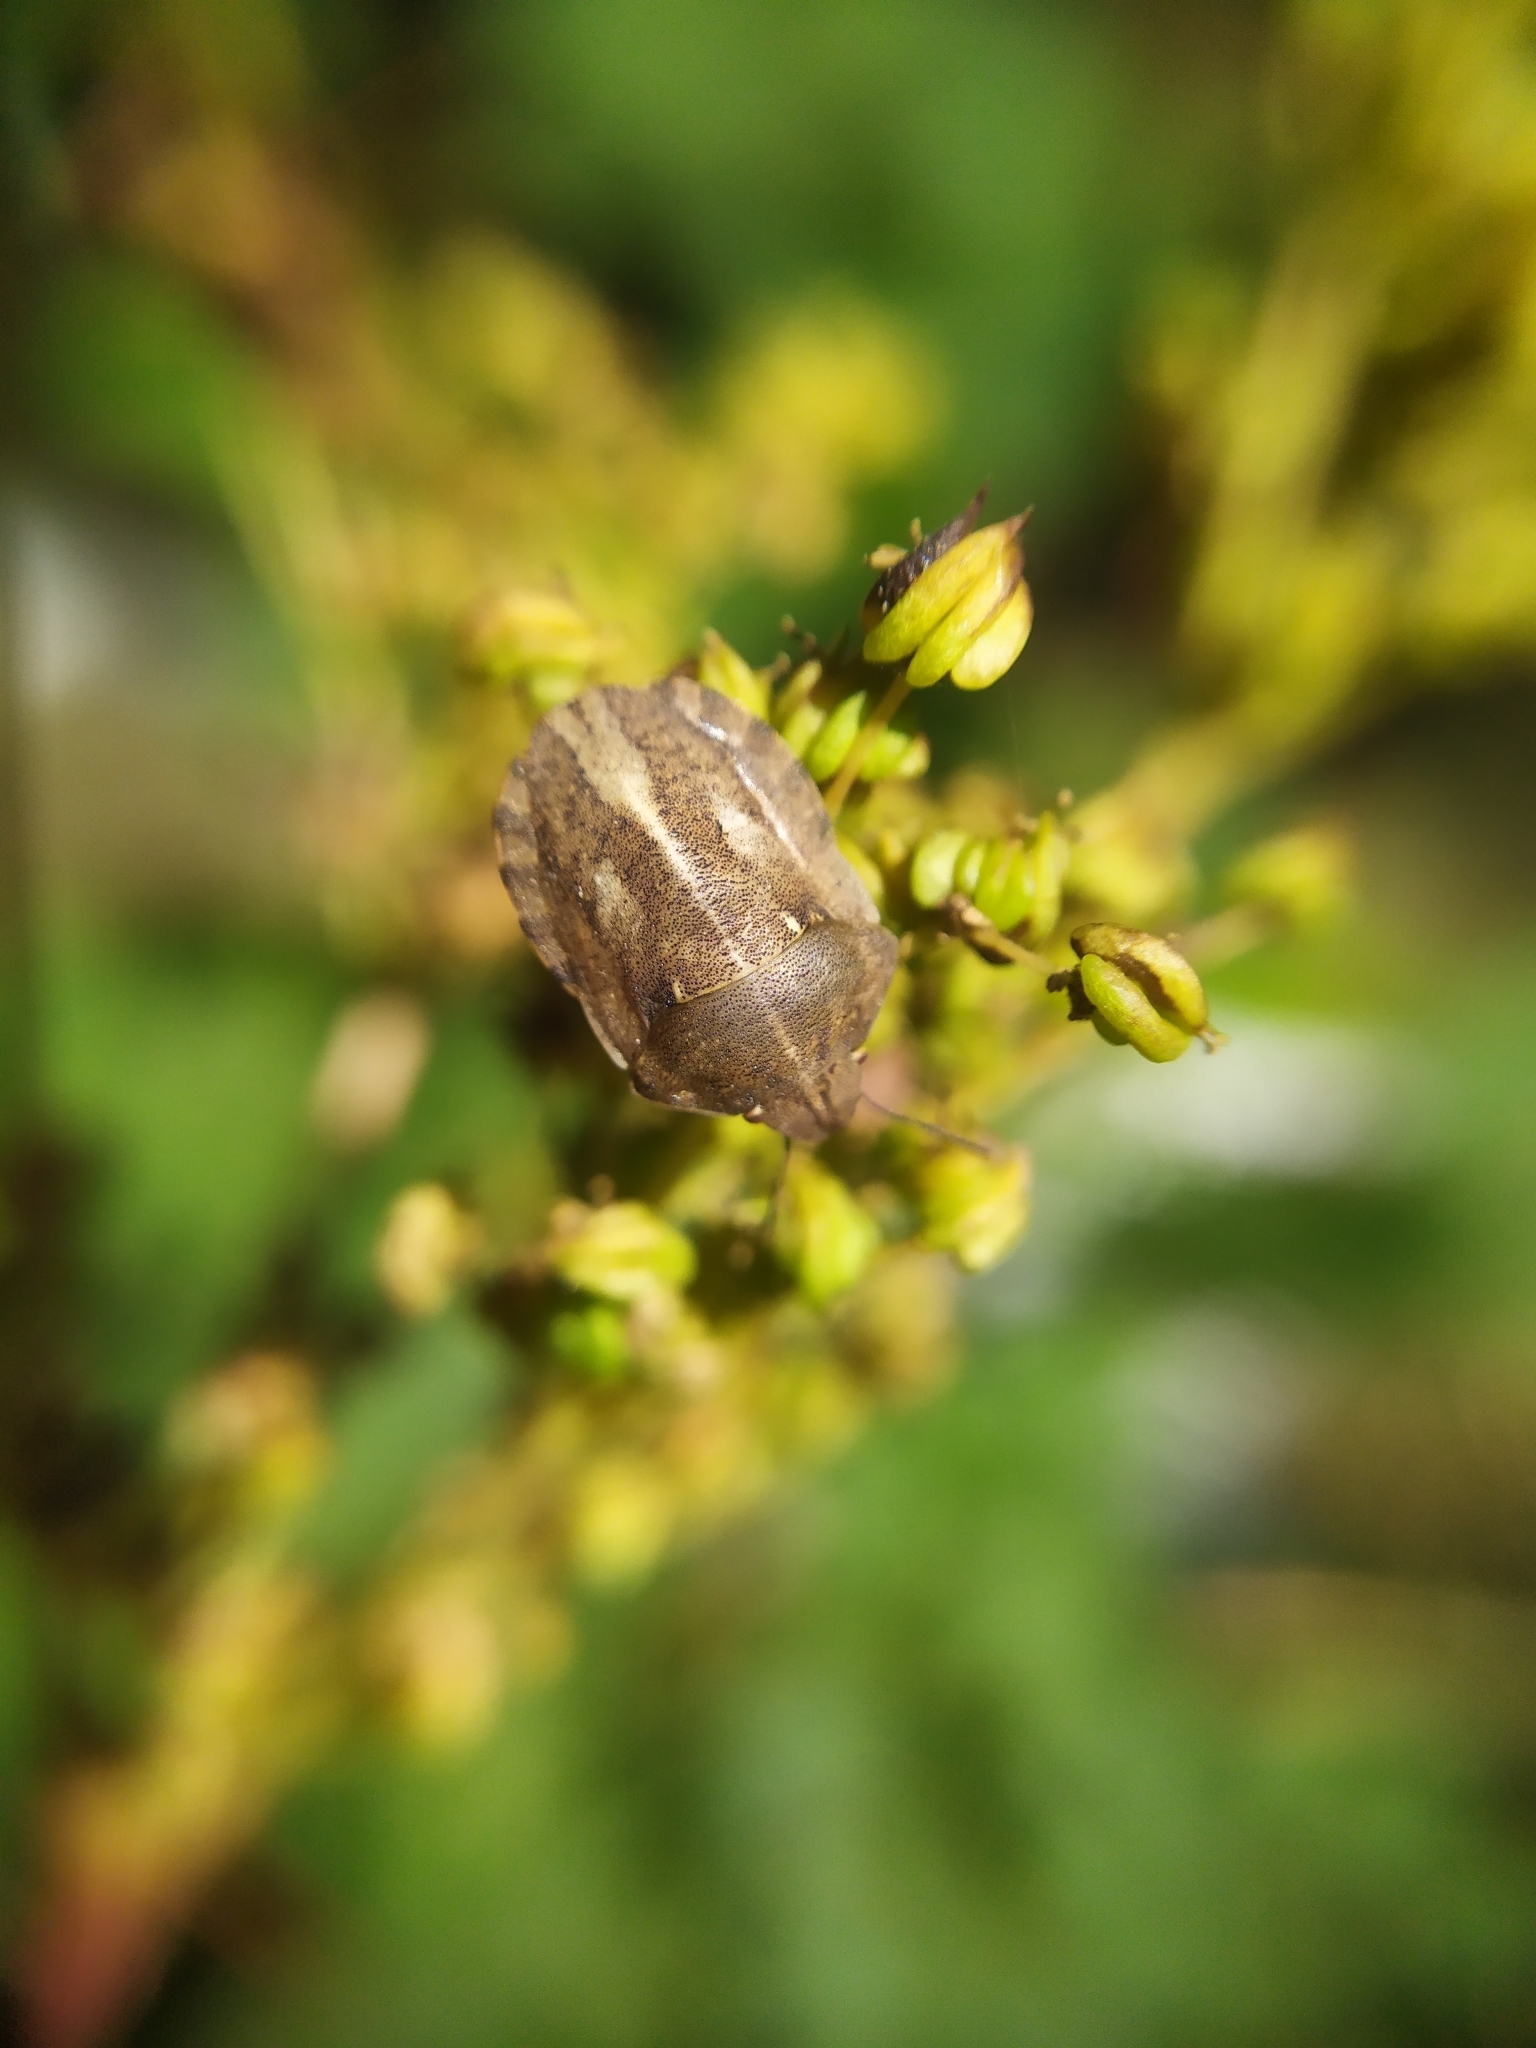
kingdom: Animalia
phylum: Arthropoda
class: Insecta
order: Hemiptera
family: Scutelleridae
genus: Eurygaster
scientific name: Eurygaster testudinaria
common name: Tortoise bug
